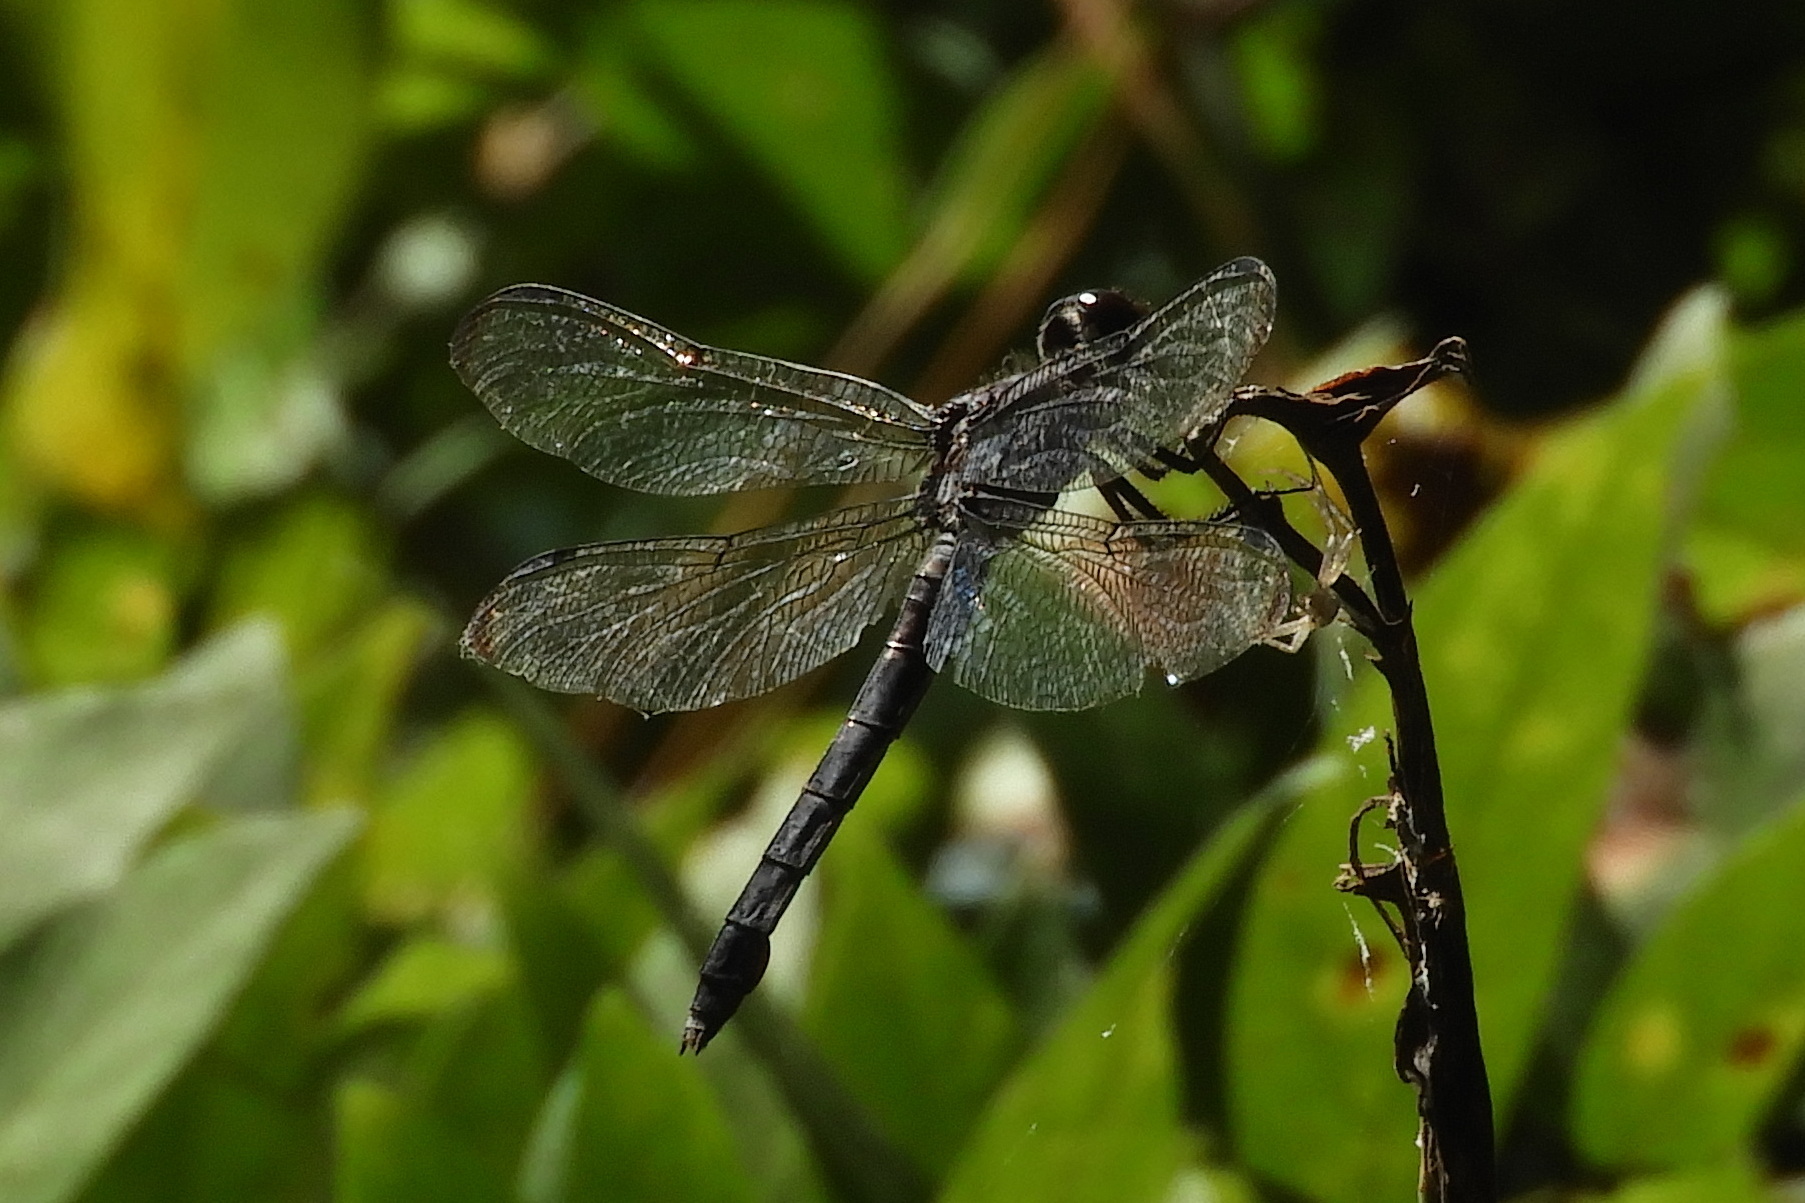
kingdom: Animalia
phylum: Arthropoda
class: Insecta
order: Odonata
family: Libellulidae
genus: Libellula
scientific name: Libellula incesta
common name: Slaty skimmer
